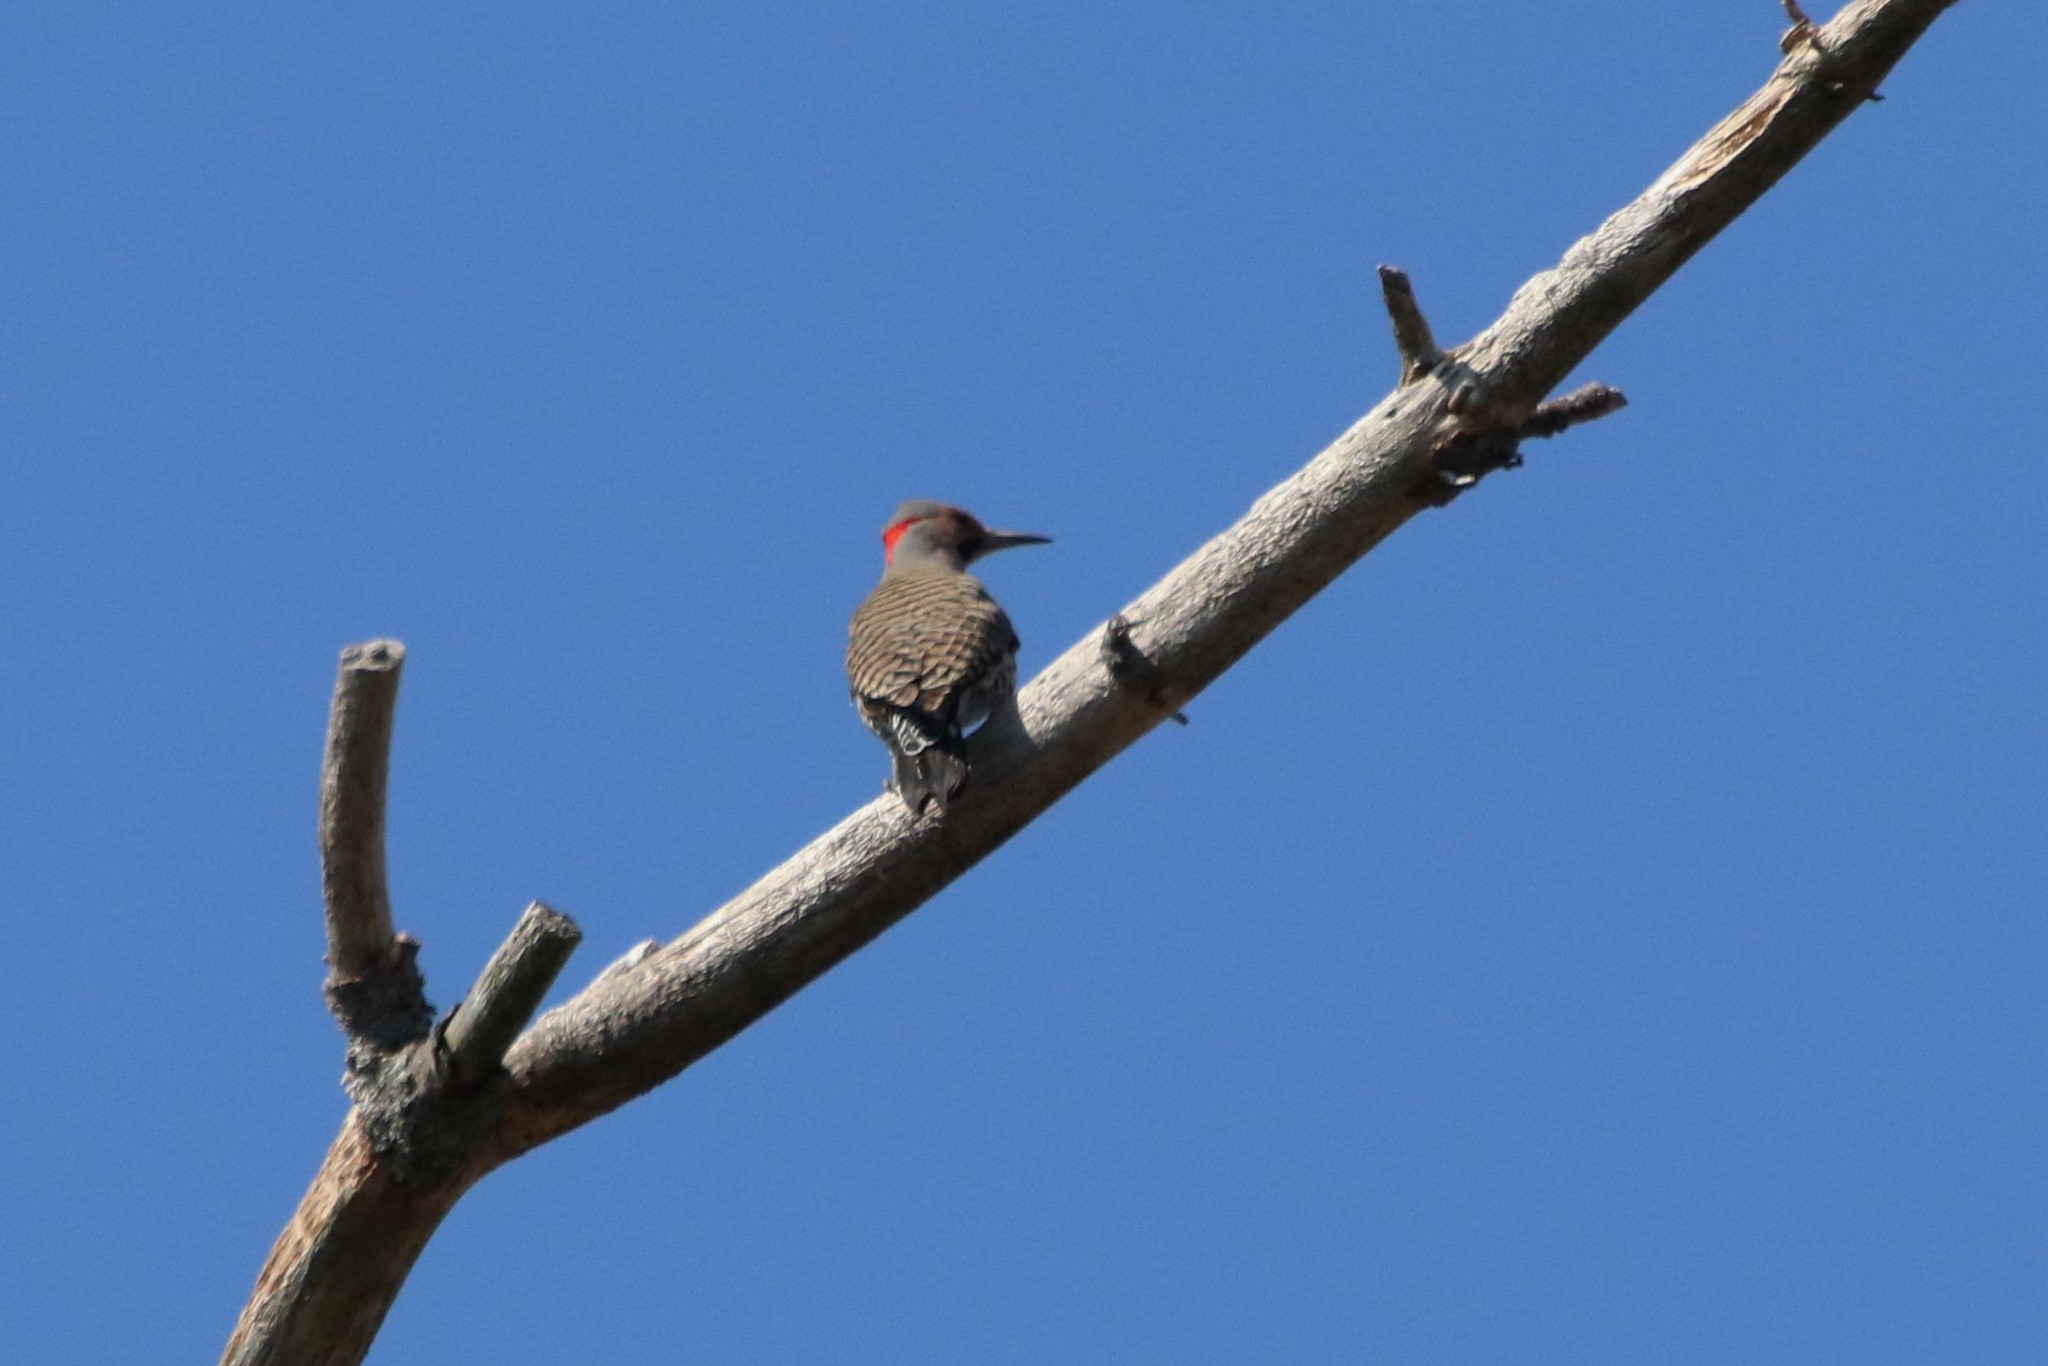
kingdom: Animalia
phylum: Chordata
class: Aves
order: Piciformes
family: Picidae
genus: Colaptes
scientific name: Colaptes auratus
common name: Northern flicker
